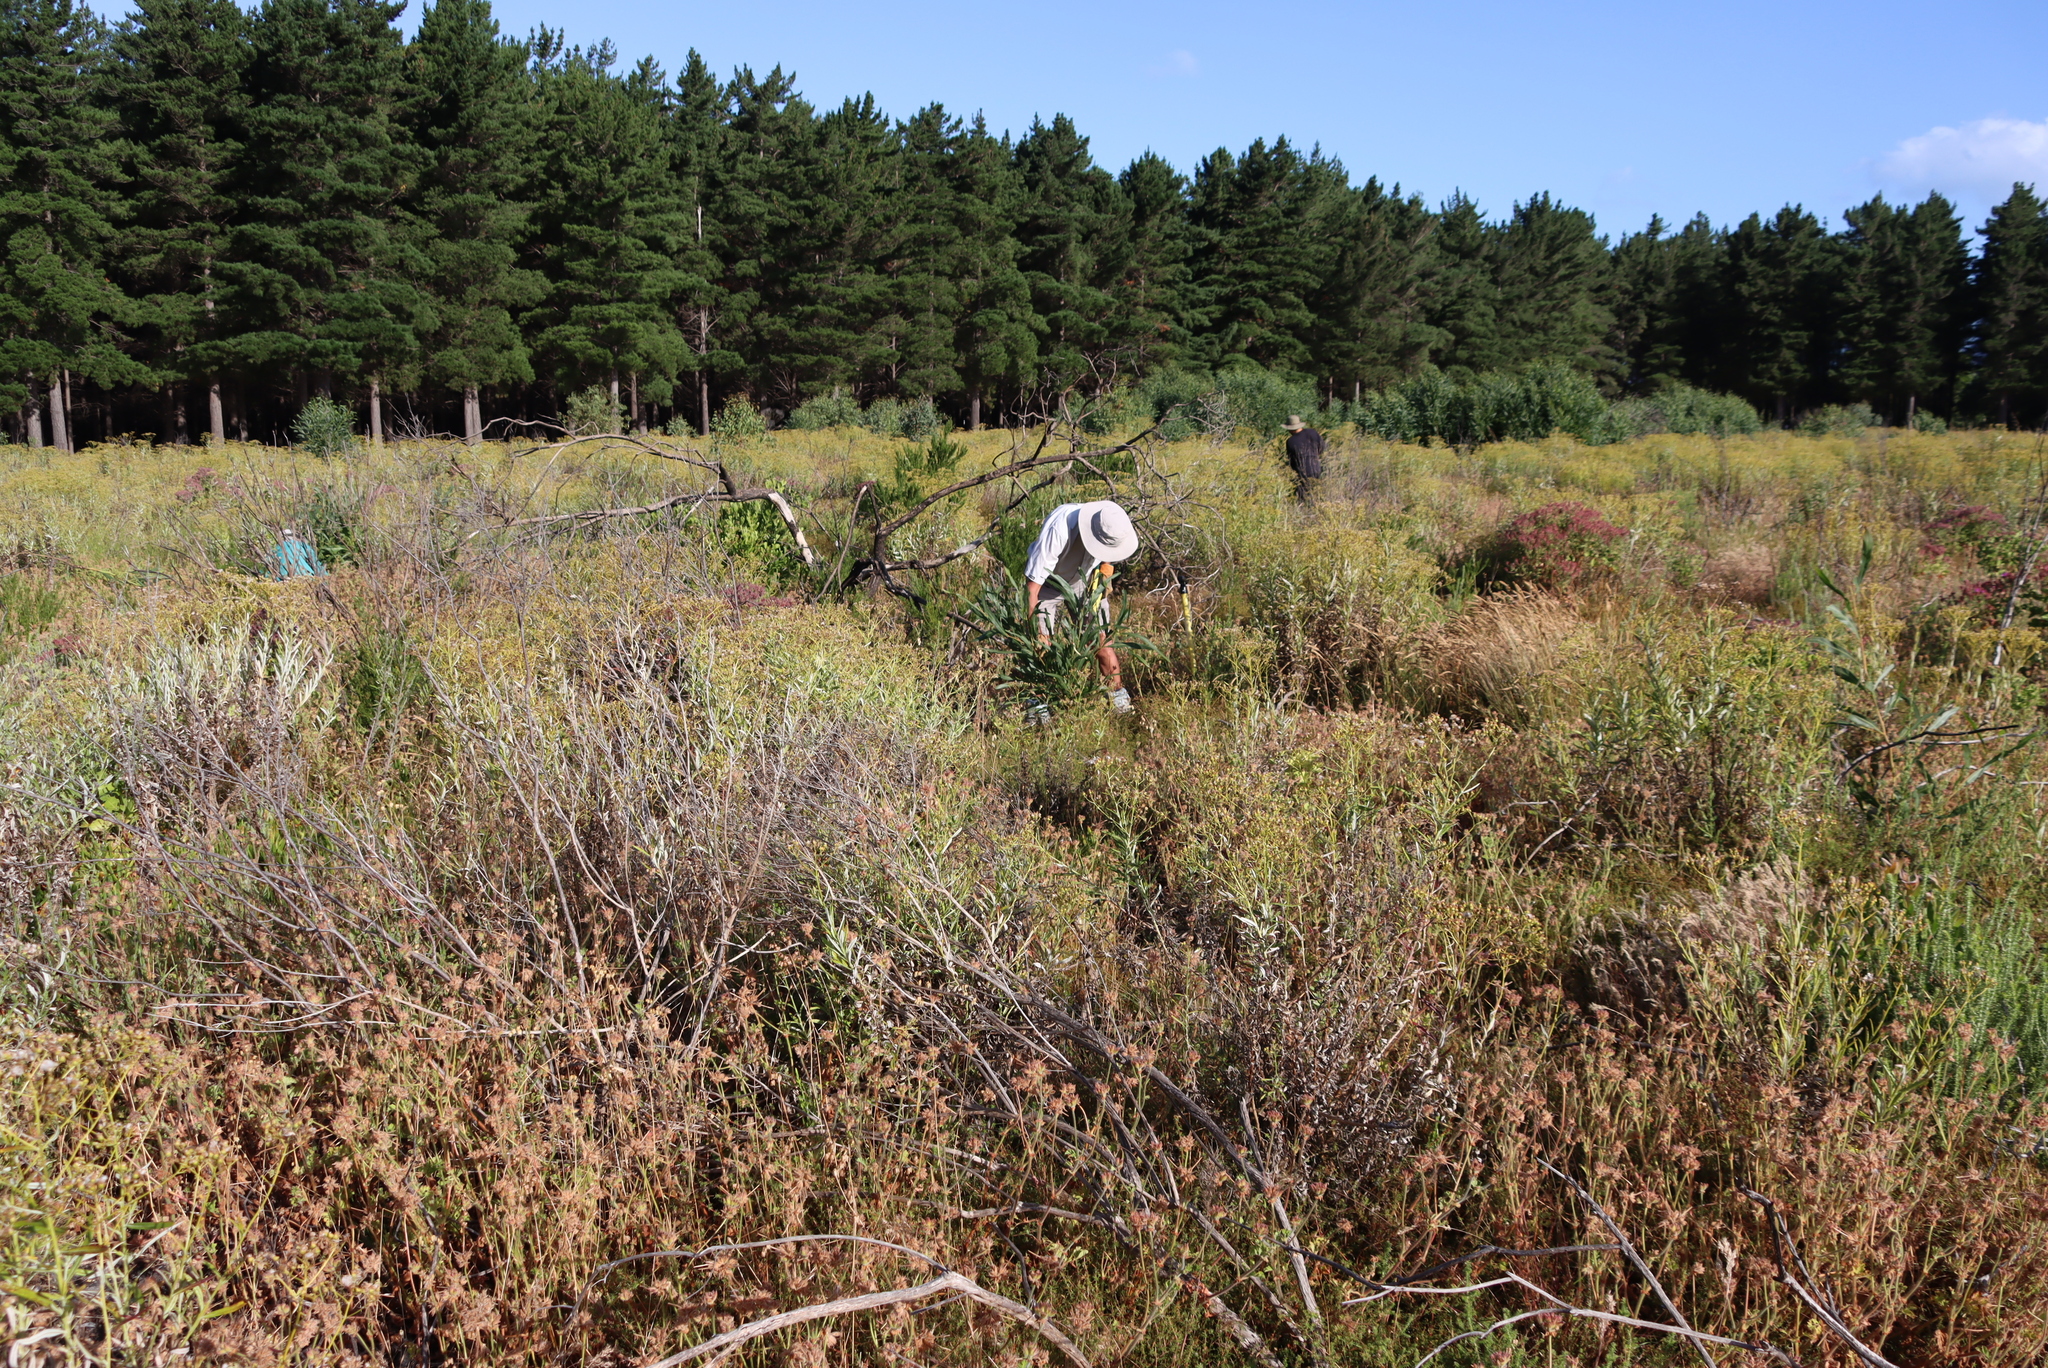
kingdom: Plantae
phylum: Tracheophyta
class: Magnoliopsida
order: Fabales
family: Fabaceae
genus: Acacia
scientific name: Acacia saligna
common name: Orange wattle
